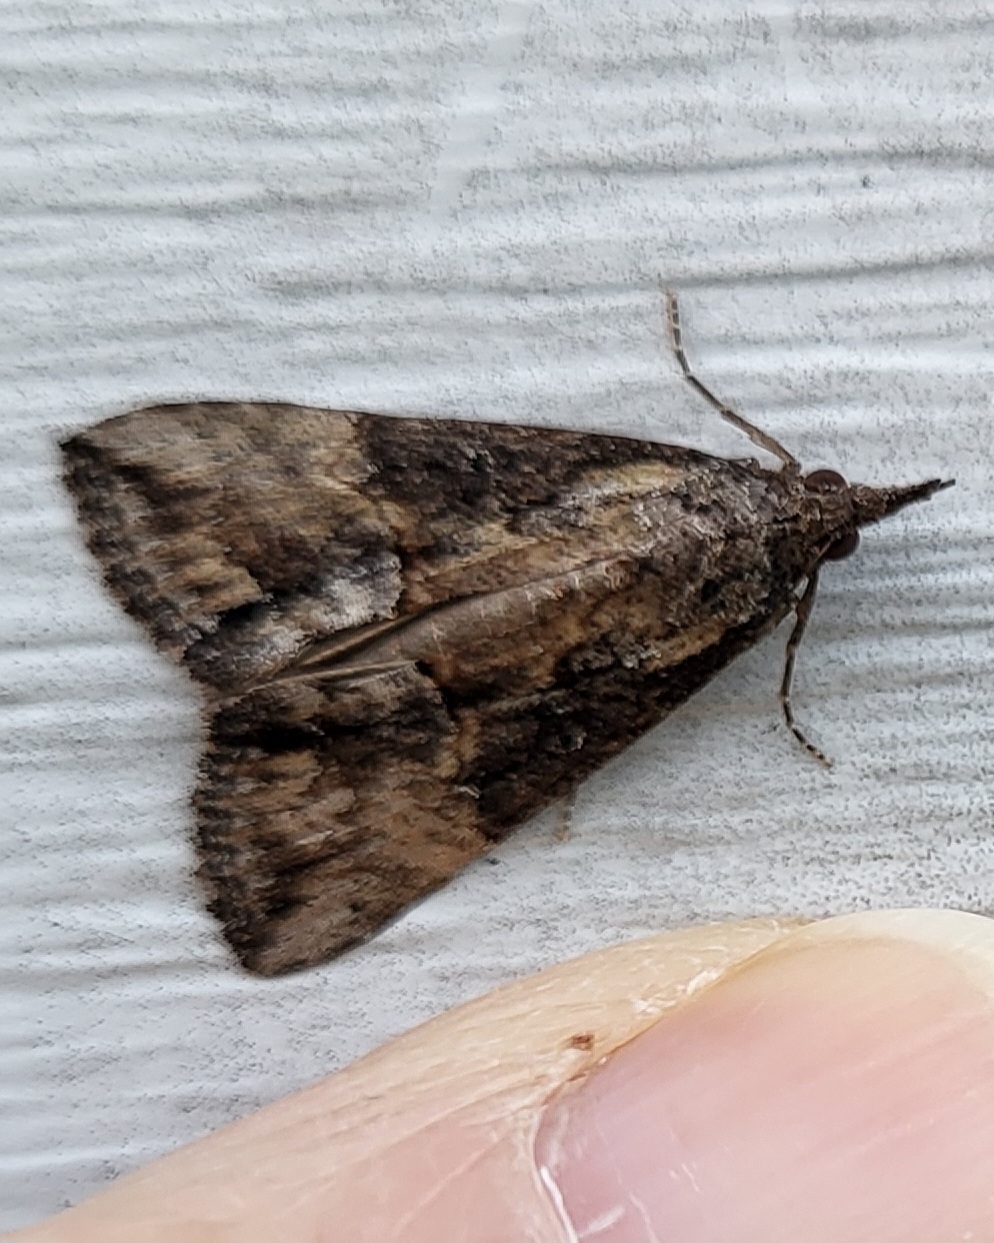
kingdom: Animalia
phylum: Arthropoda
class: Insecta
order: Lepidoptera
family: Erebidae
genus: Hypena
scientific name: Hypena scabra
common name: Green cloverworm
